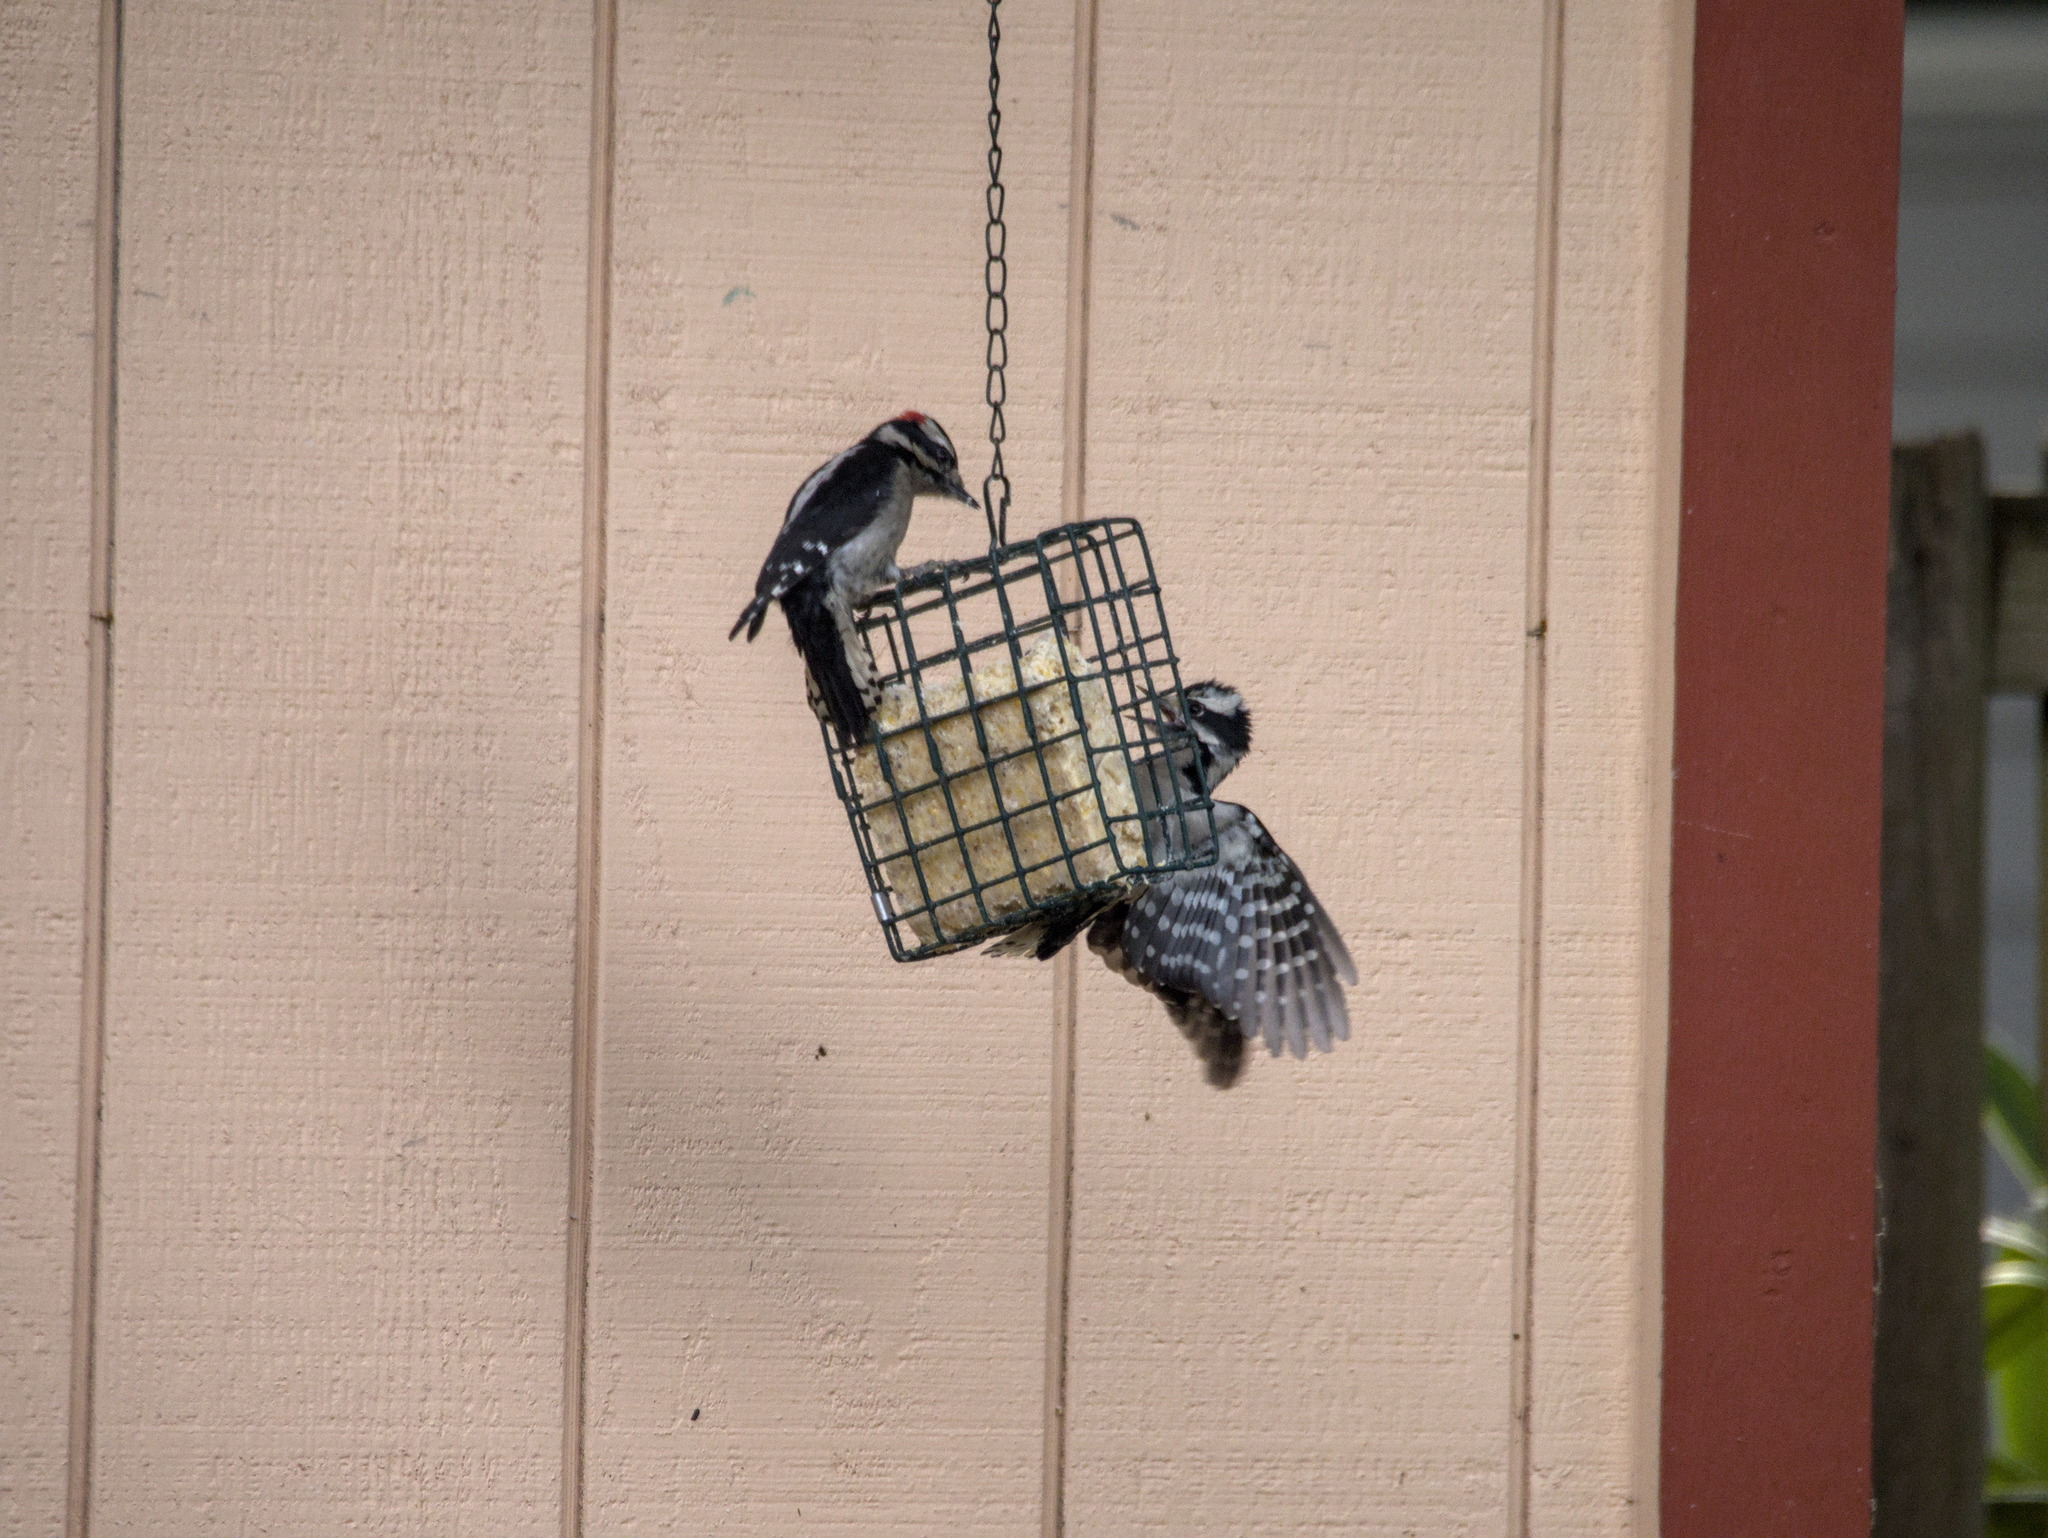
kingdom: Animalia
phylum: Chordata
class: Aves
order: Piciformes
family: Picidae
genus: Dryobates
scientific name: Dryobates pubescens
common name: Downy woodpecker
